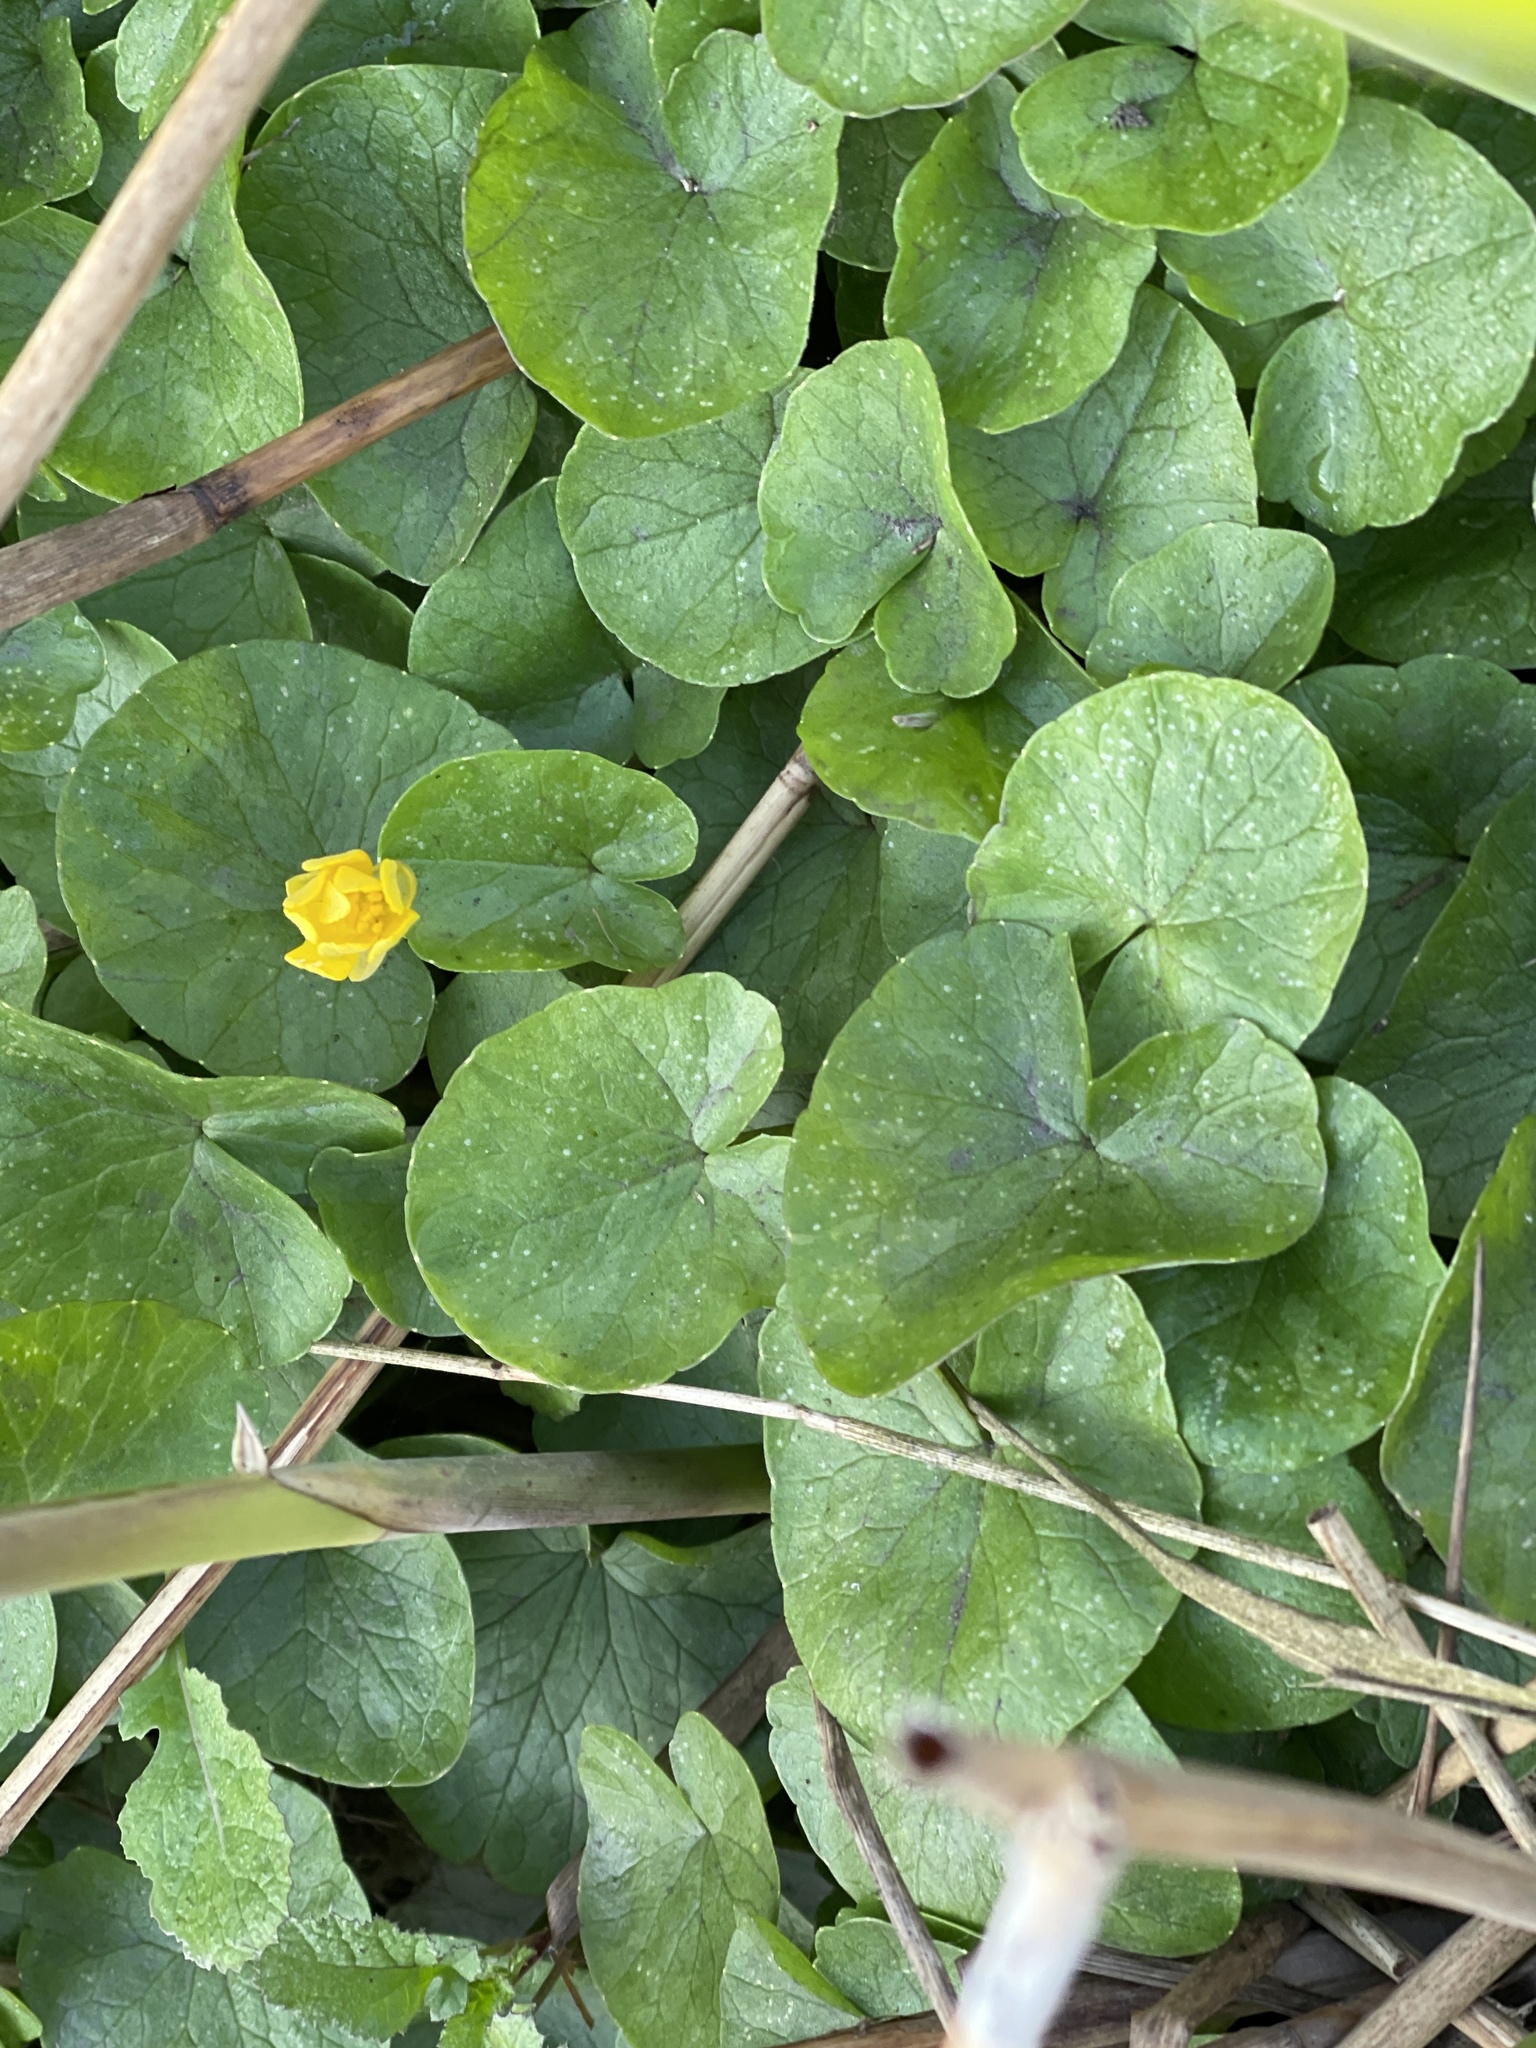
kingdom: Plantae
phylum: Tracheophyta
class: Magnoliopsida
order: Ranunculales
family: Ranunculaceae
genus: Ficaria
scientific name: Ficaria verna
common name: Lesser celandine
